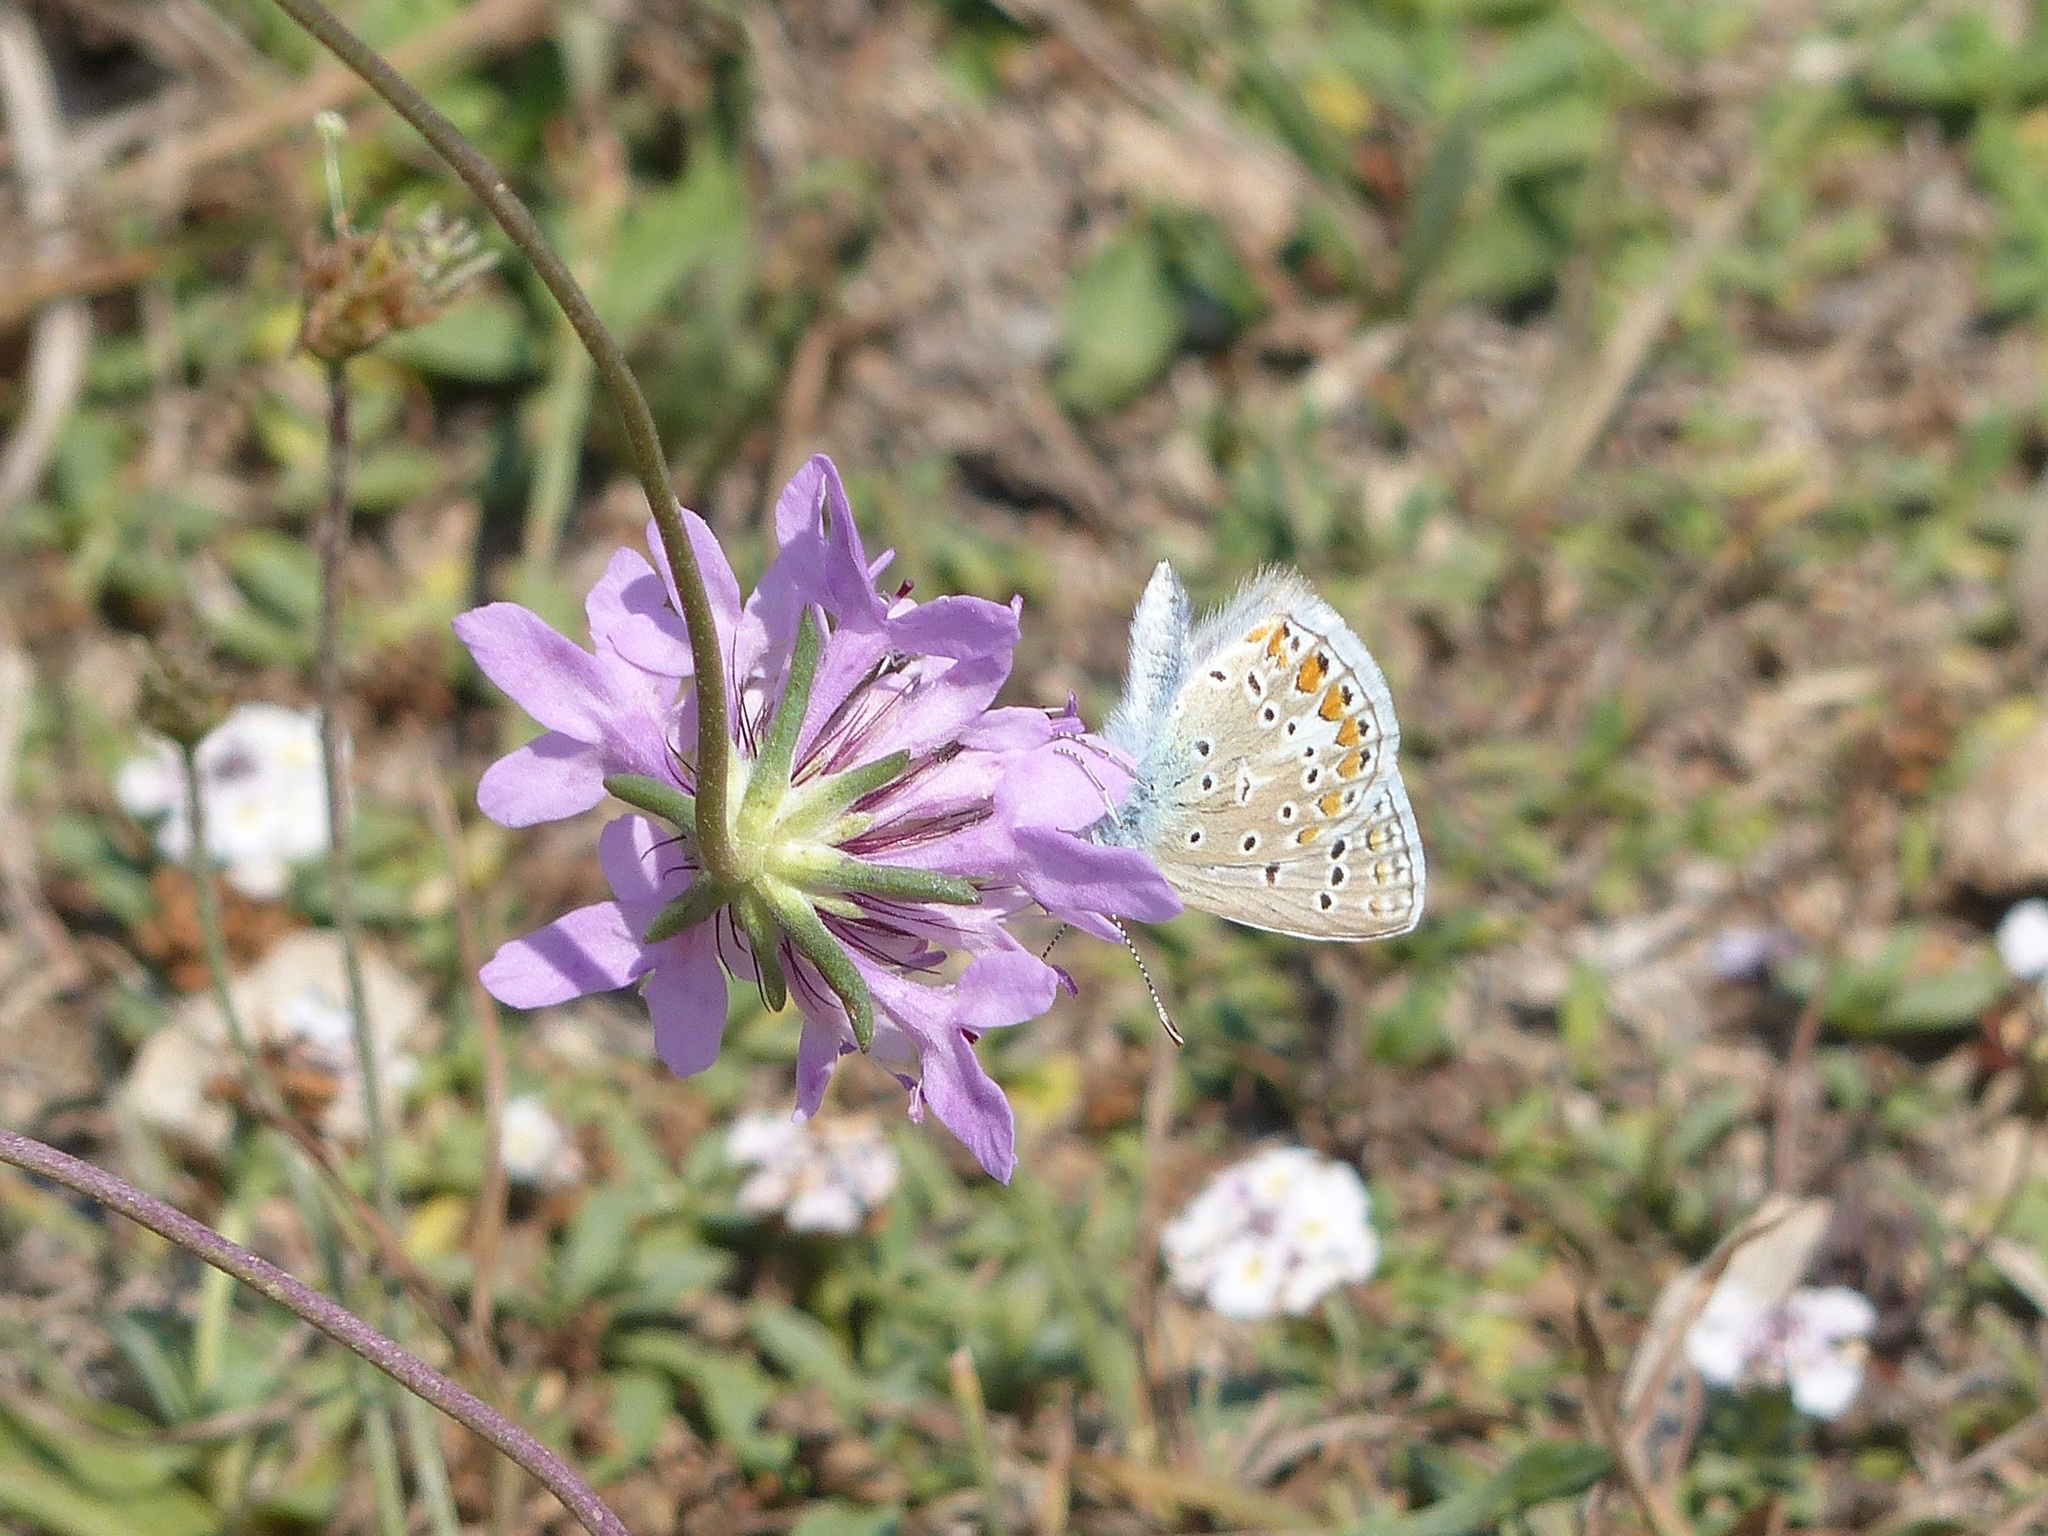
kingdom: Animalia
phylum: Arthropoda
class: Insecta
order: Lepidoptera
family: Lycaenidae
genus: Polyommatus
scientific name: Polyommatus icarus
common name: Common blue
